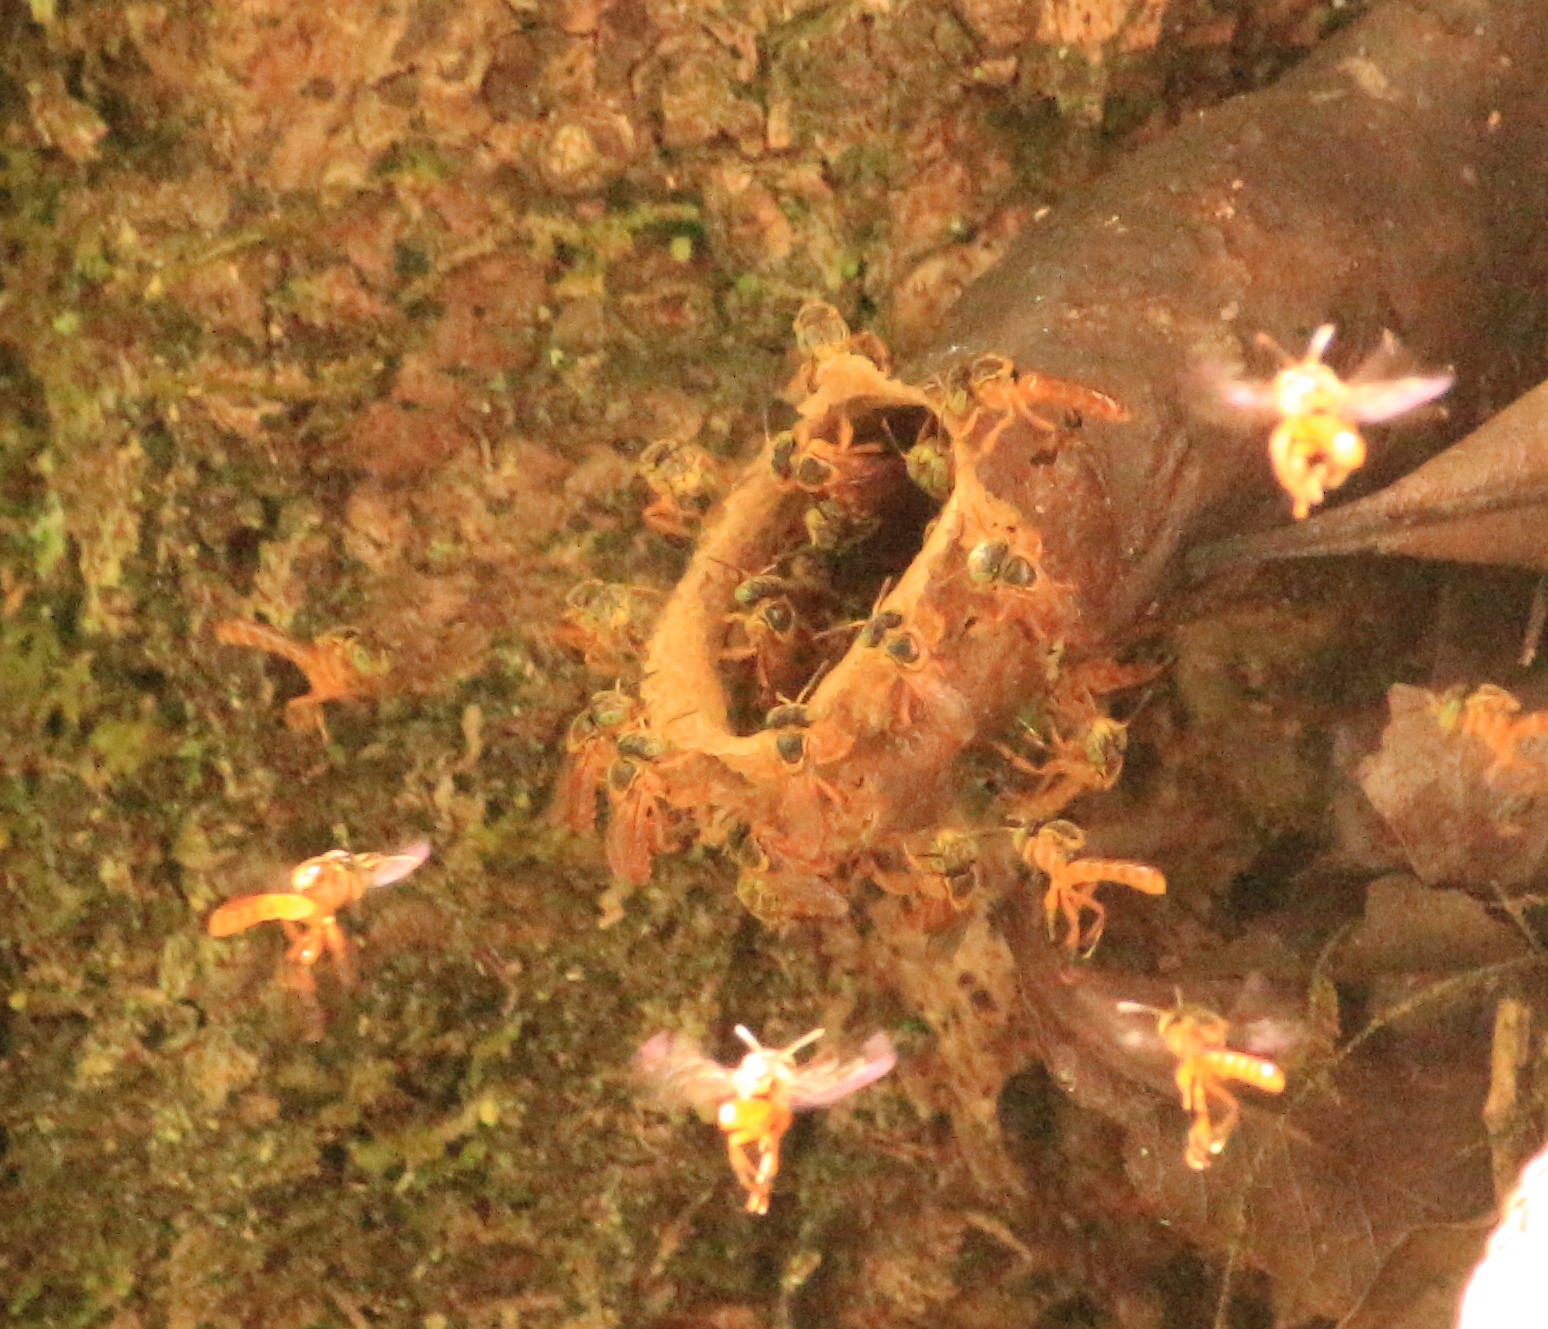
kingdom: Animalia
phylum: Arthropoda
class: Insecta
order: Hymenoptera
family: Apidae
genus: Tetragonisca
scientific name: Tetragonisca fiebrigi
